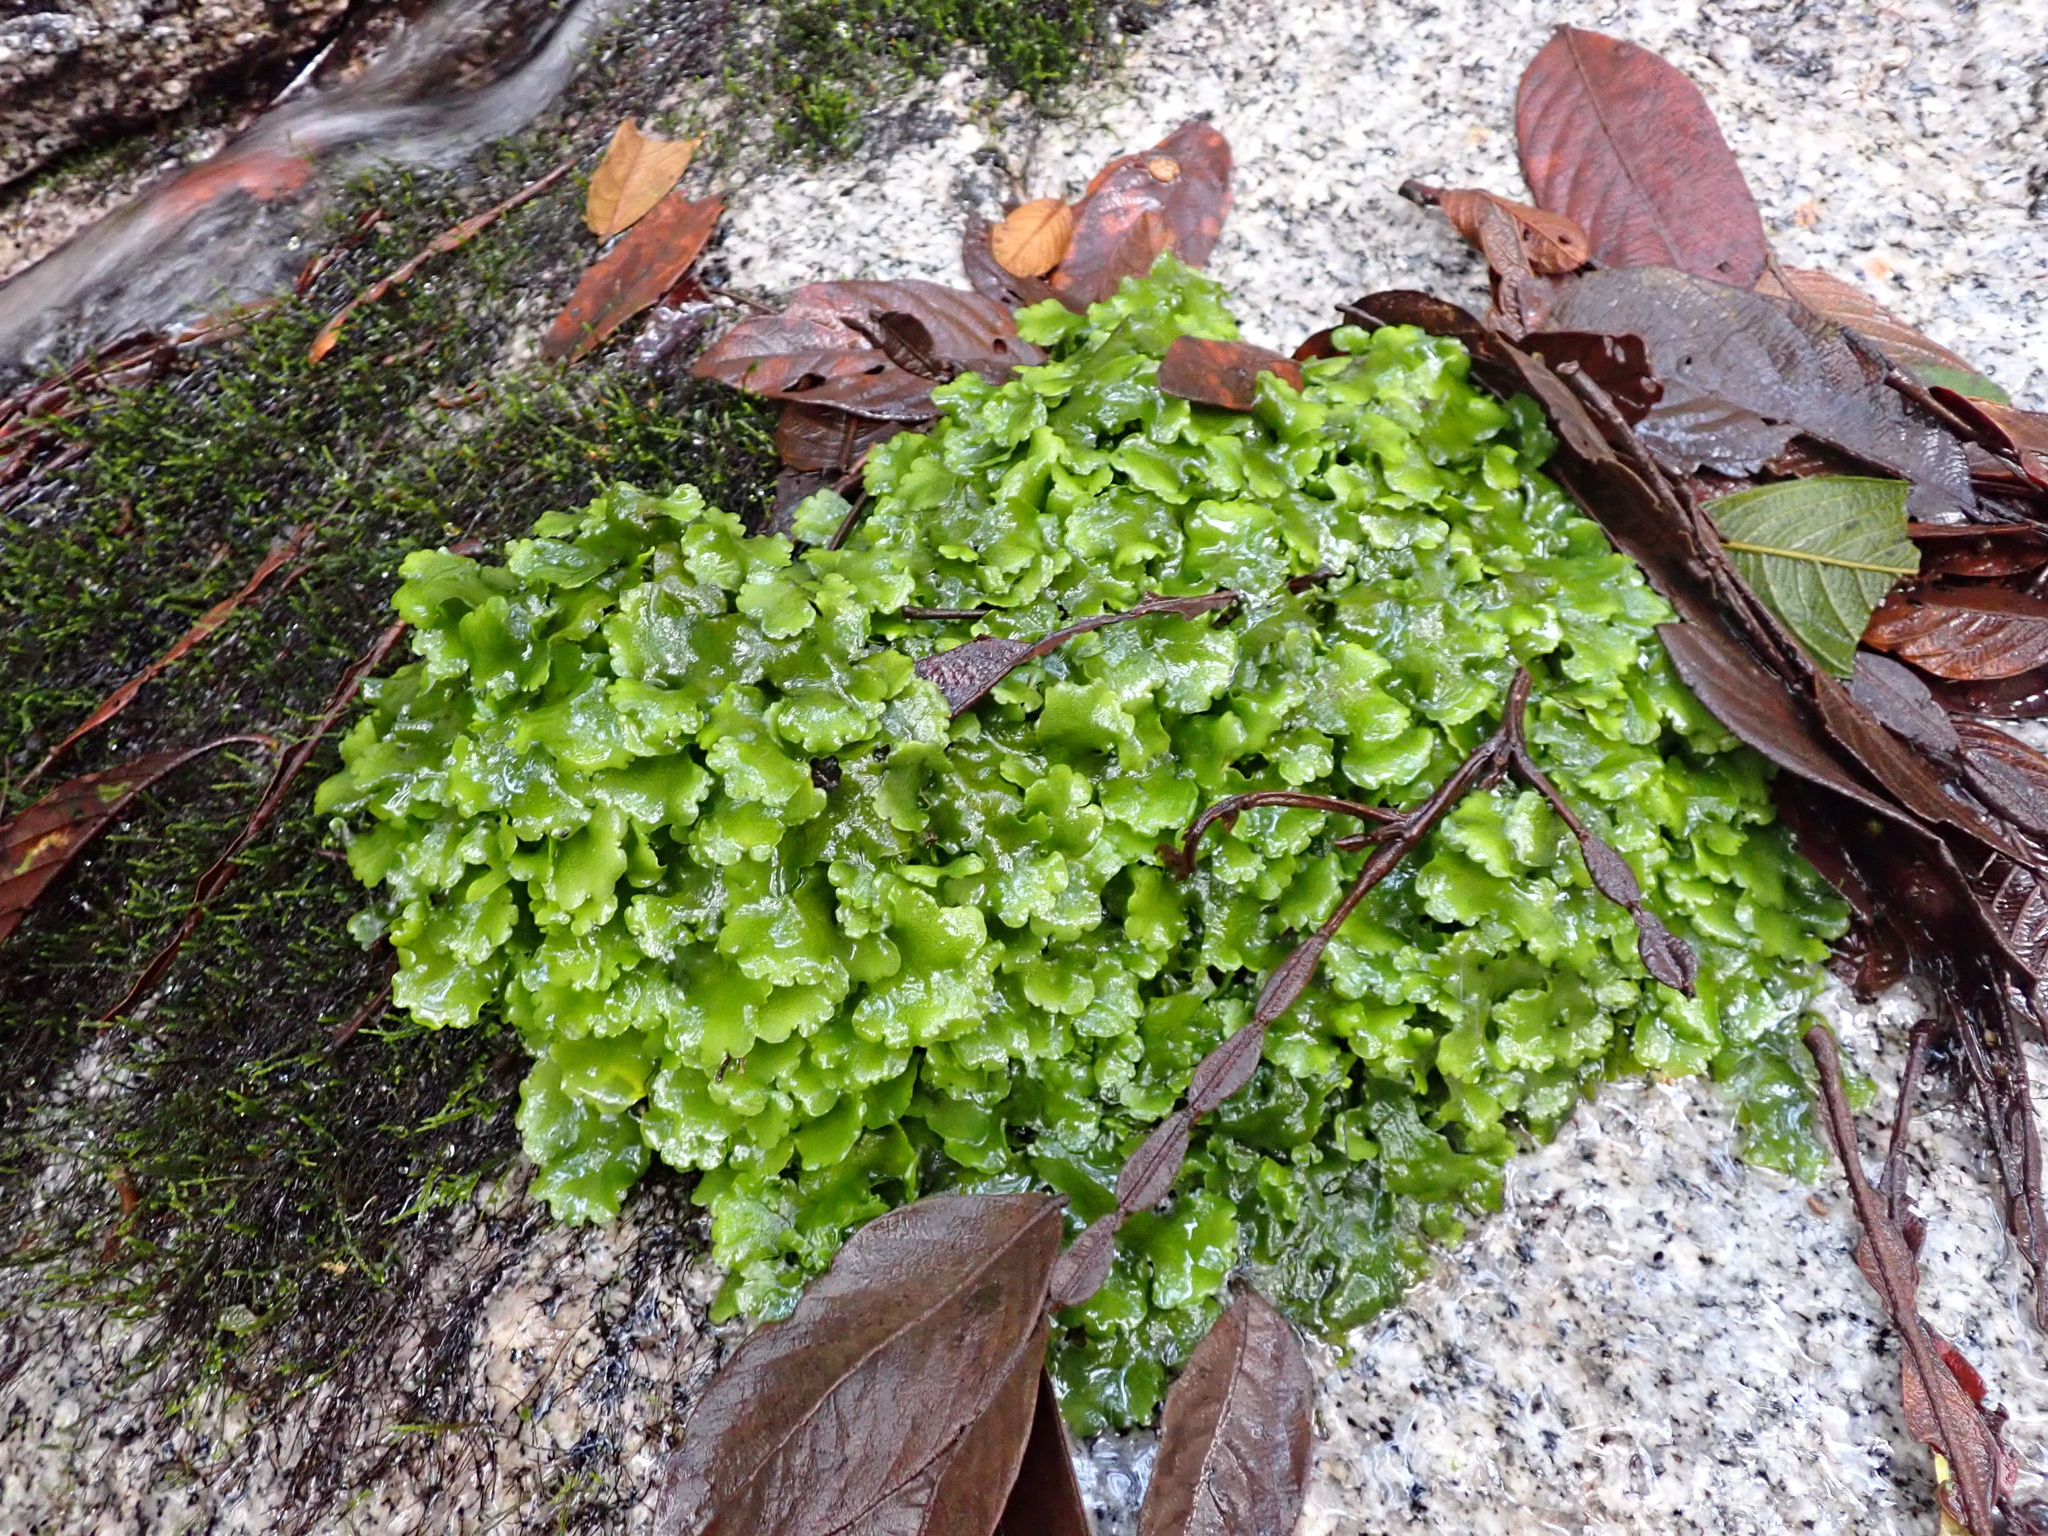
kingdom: Plantae
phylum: Marchantiophyta
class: Marchantiopsida
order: Marchantiales
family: Monocleaceae
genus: Monoclea
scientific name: Monoclea gottschei
